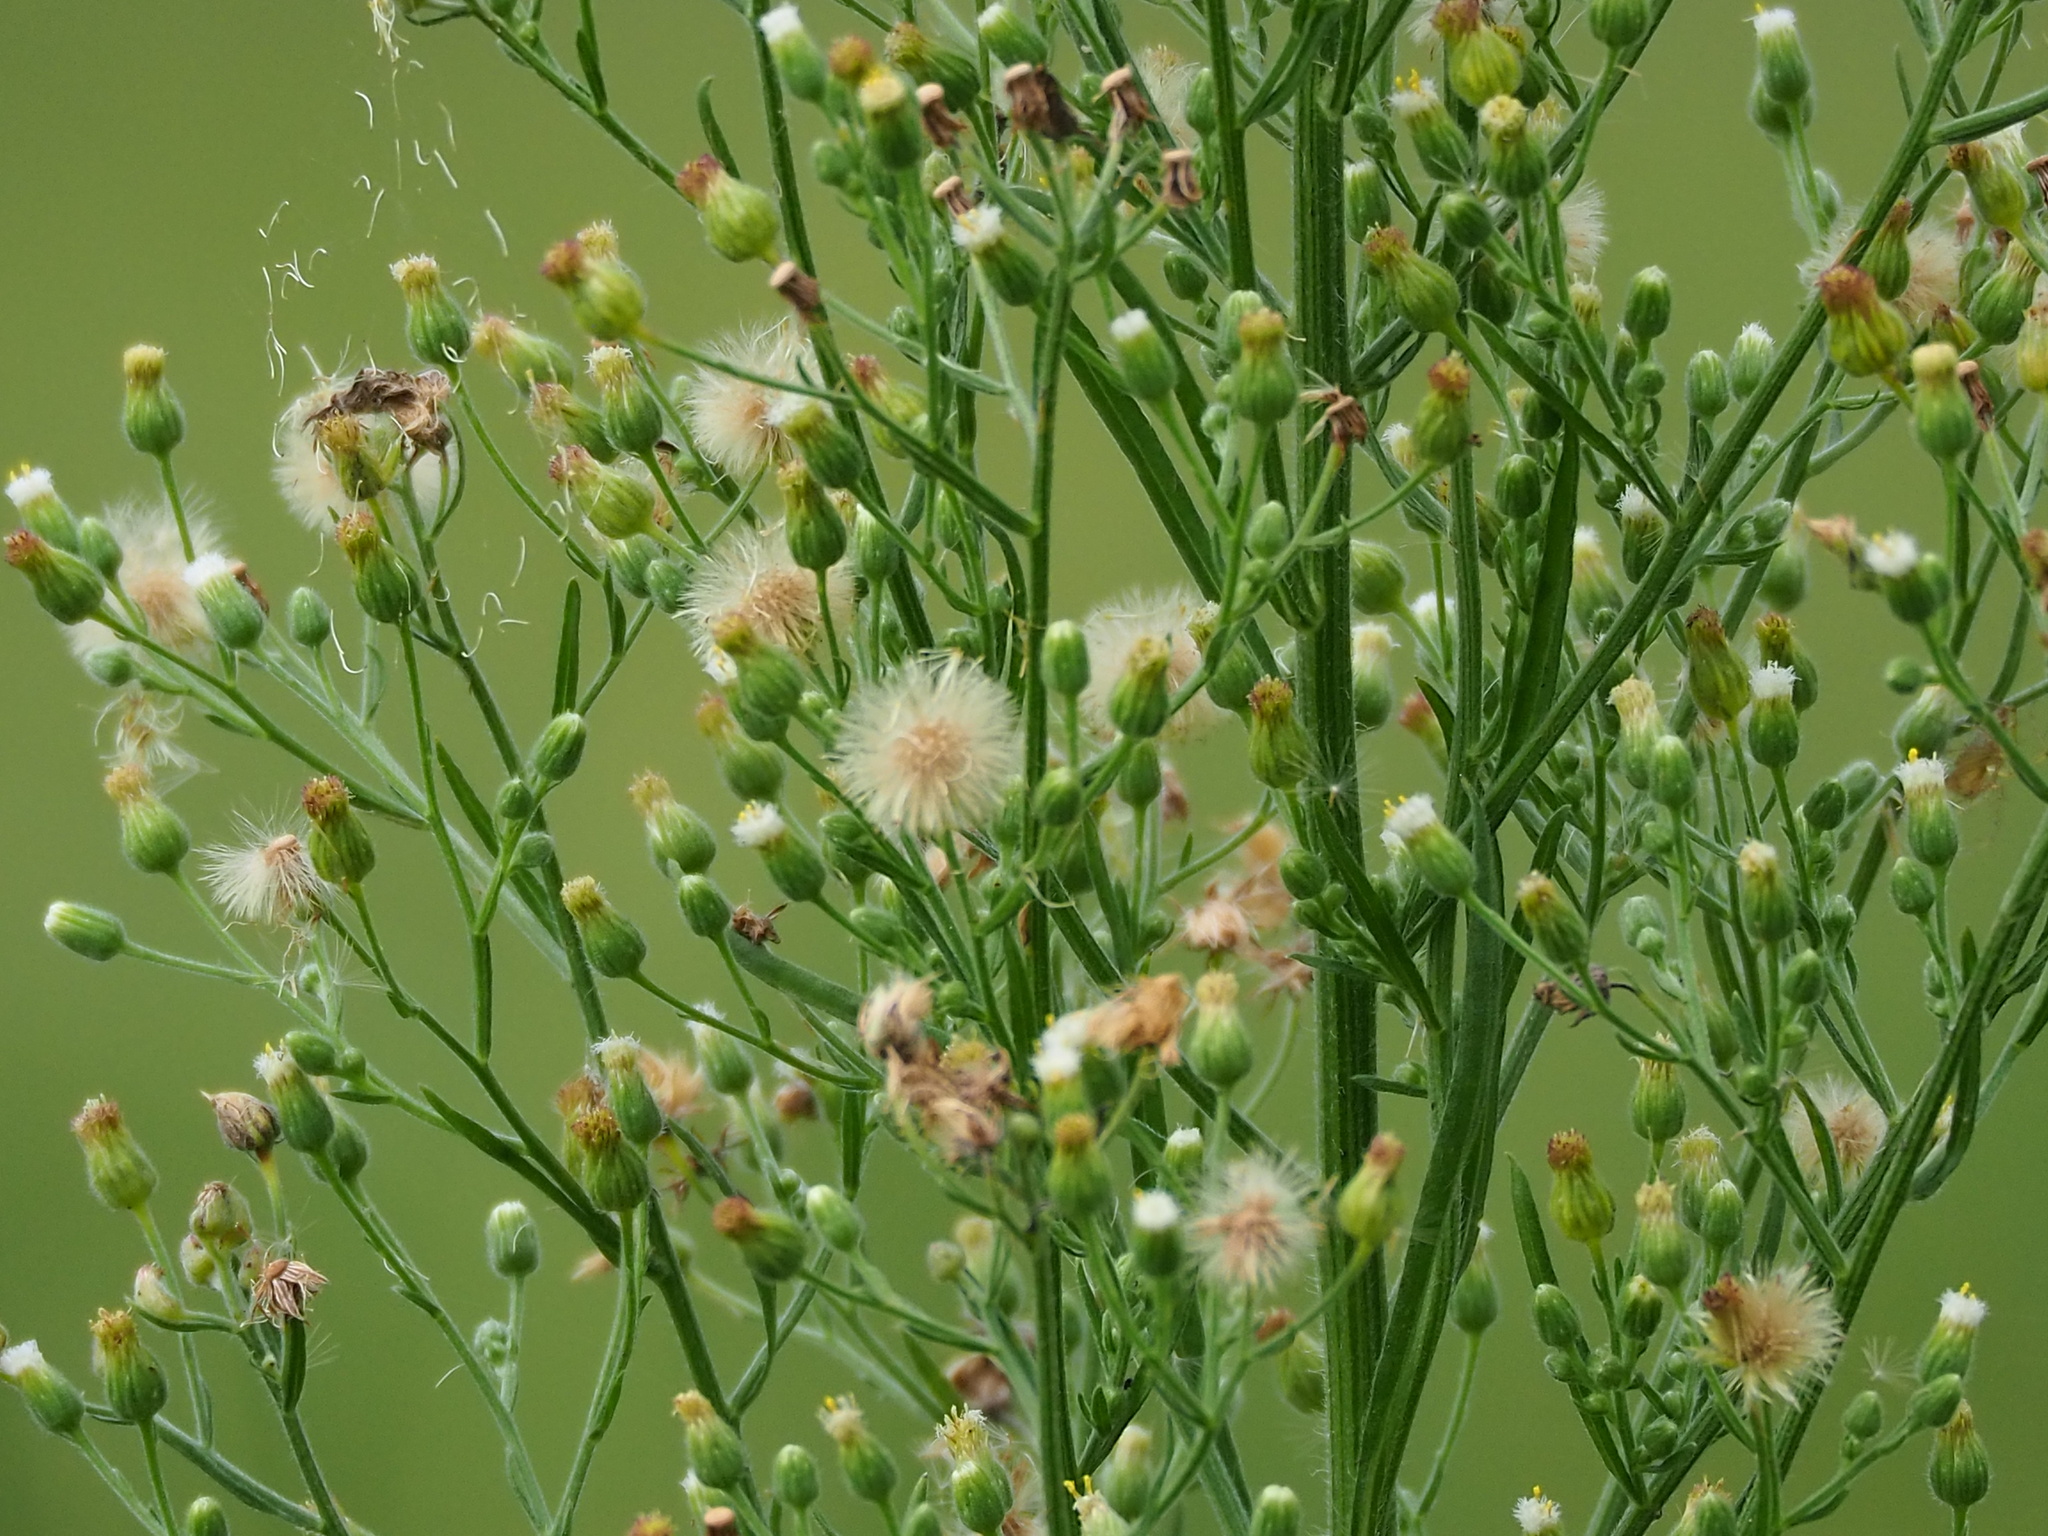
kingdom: Plantae
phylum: Tracheophyta
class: Magnoliopsida
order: Asterales
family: Asteraceae
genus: Erigeron
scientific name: Erigeron sumatrensis
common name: Daisy
